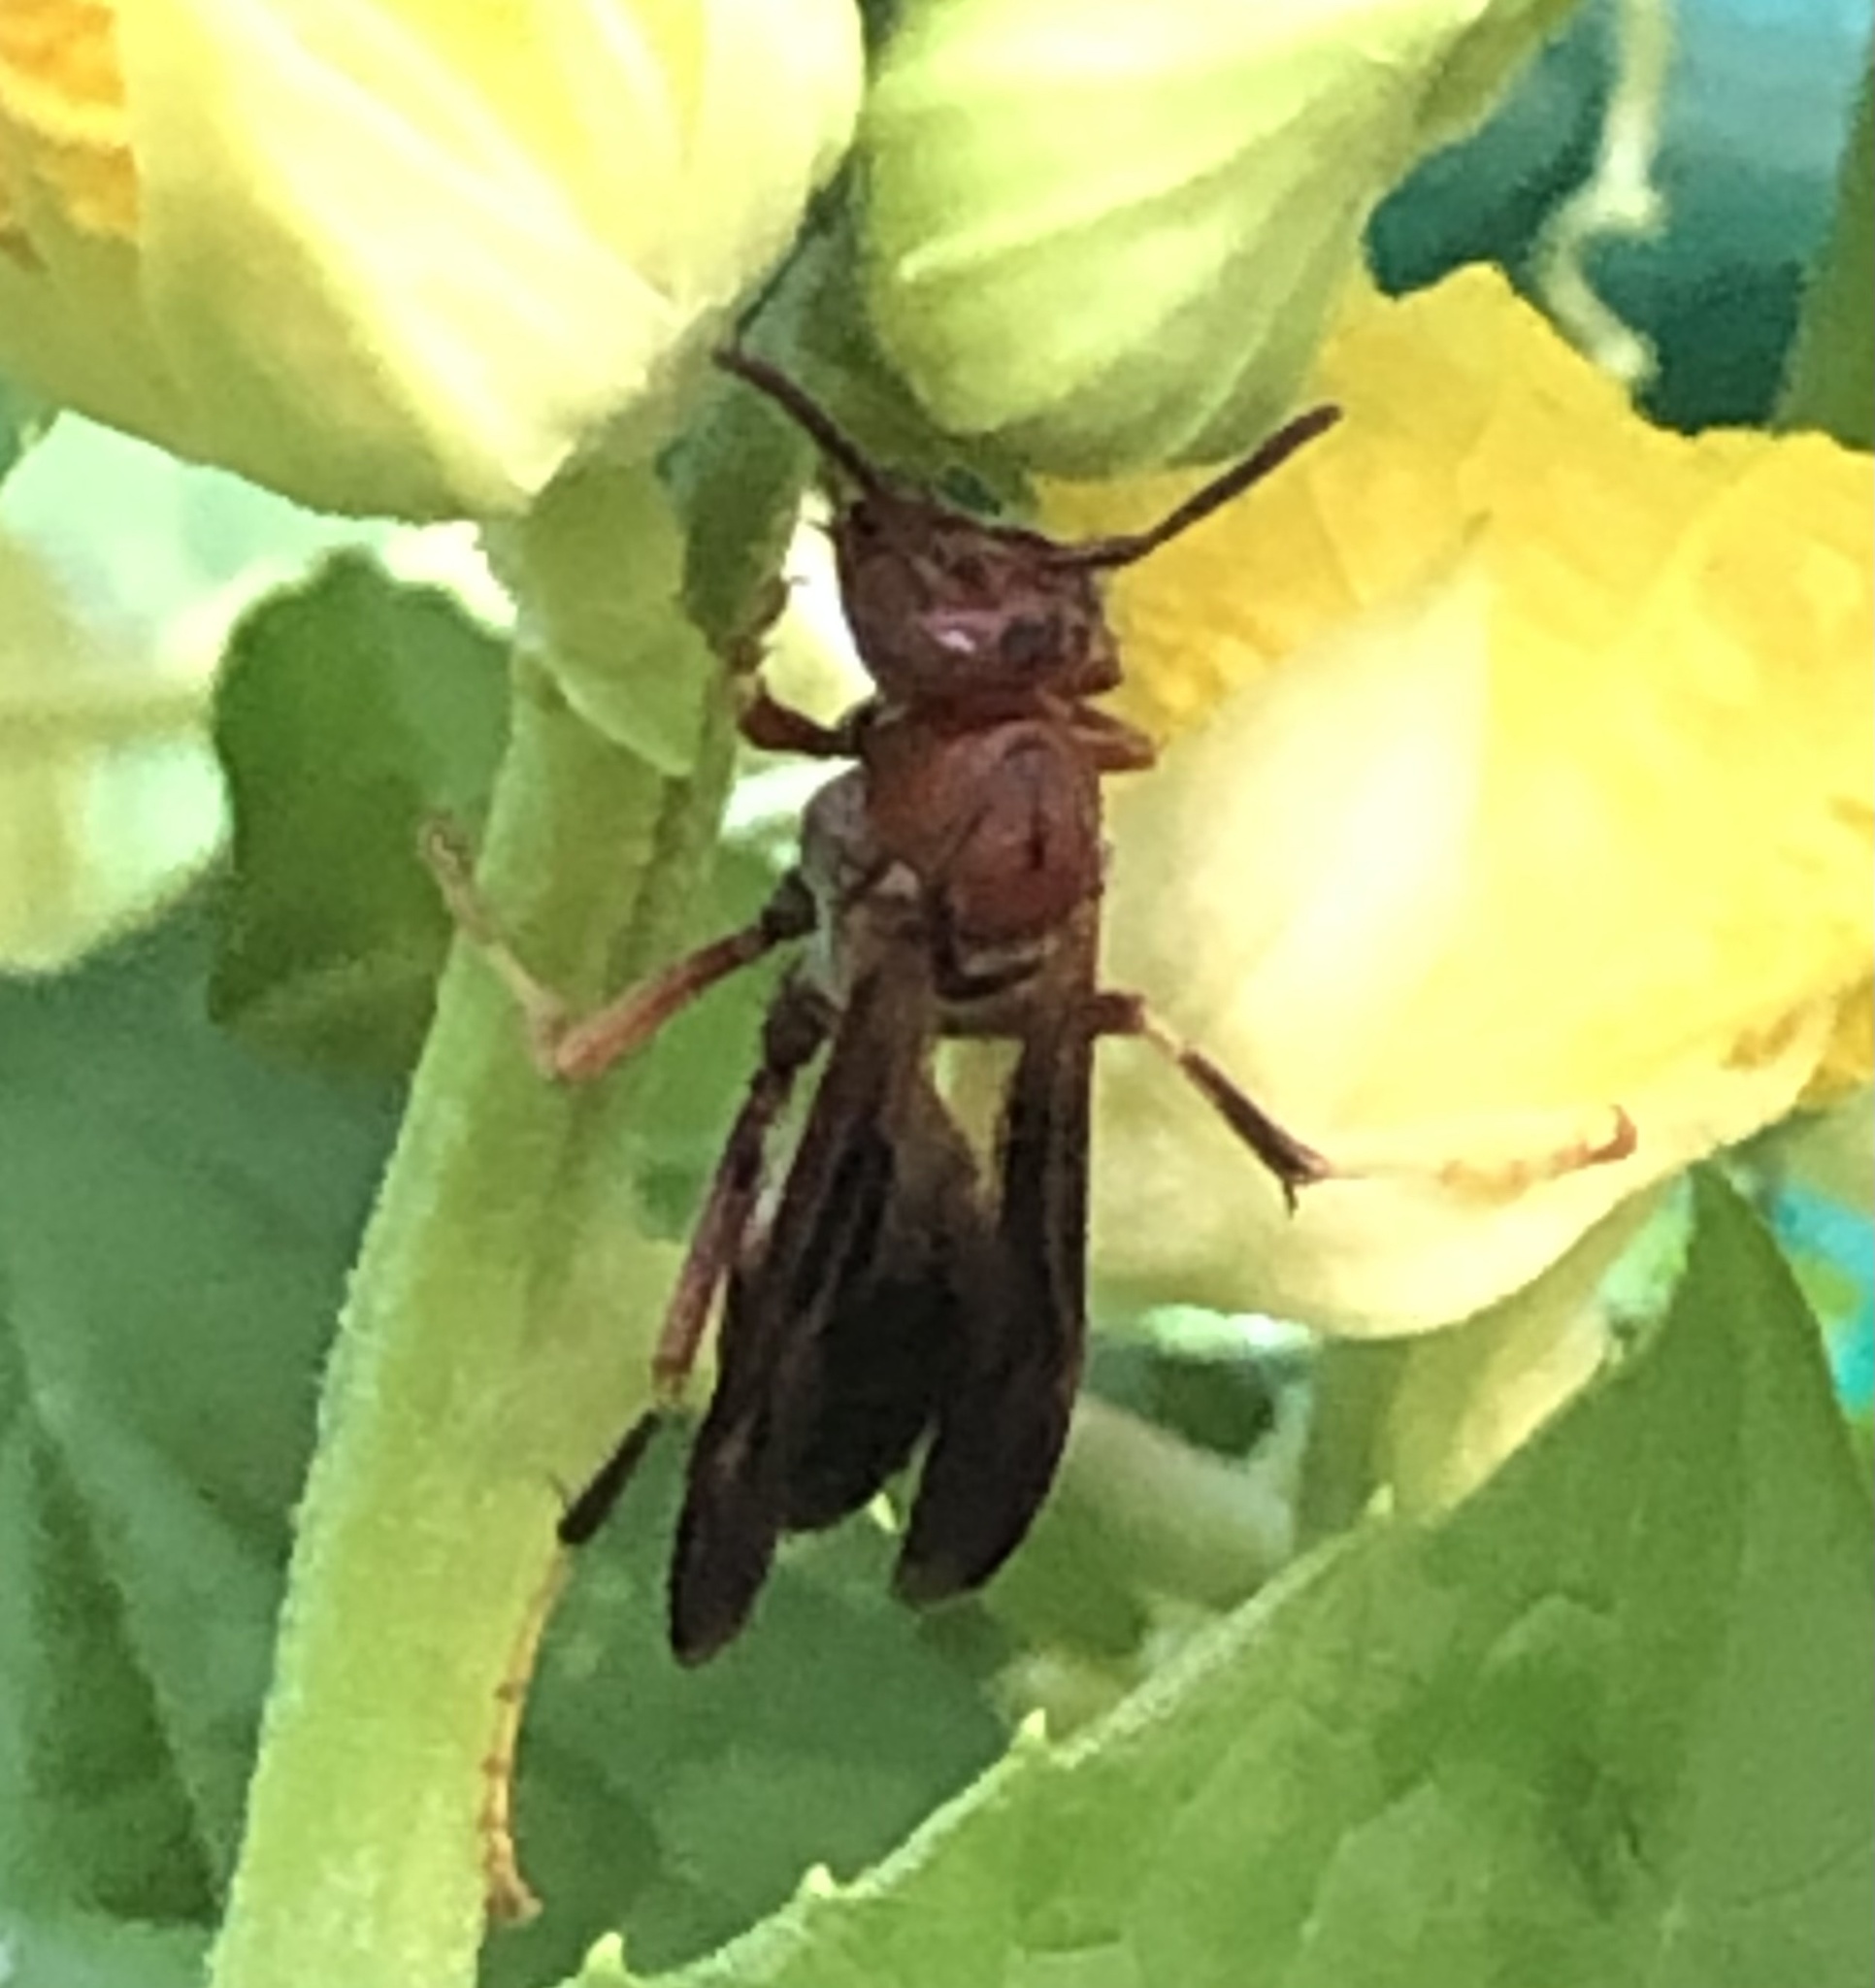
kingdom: Animalia
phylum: Arthropoda
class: Insecta
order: Hymenoptera
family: Eumenidae
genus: Polistes
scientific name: Polistes metricus
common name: Metric paper wasp
